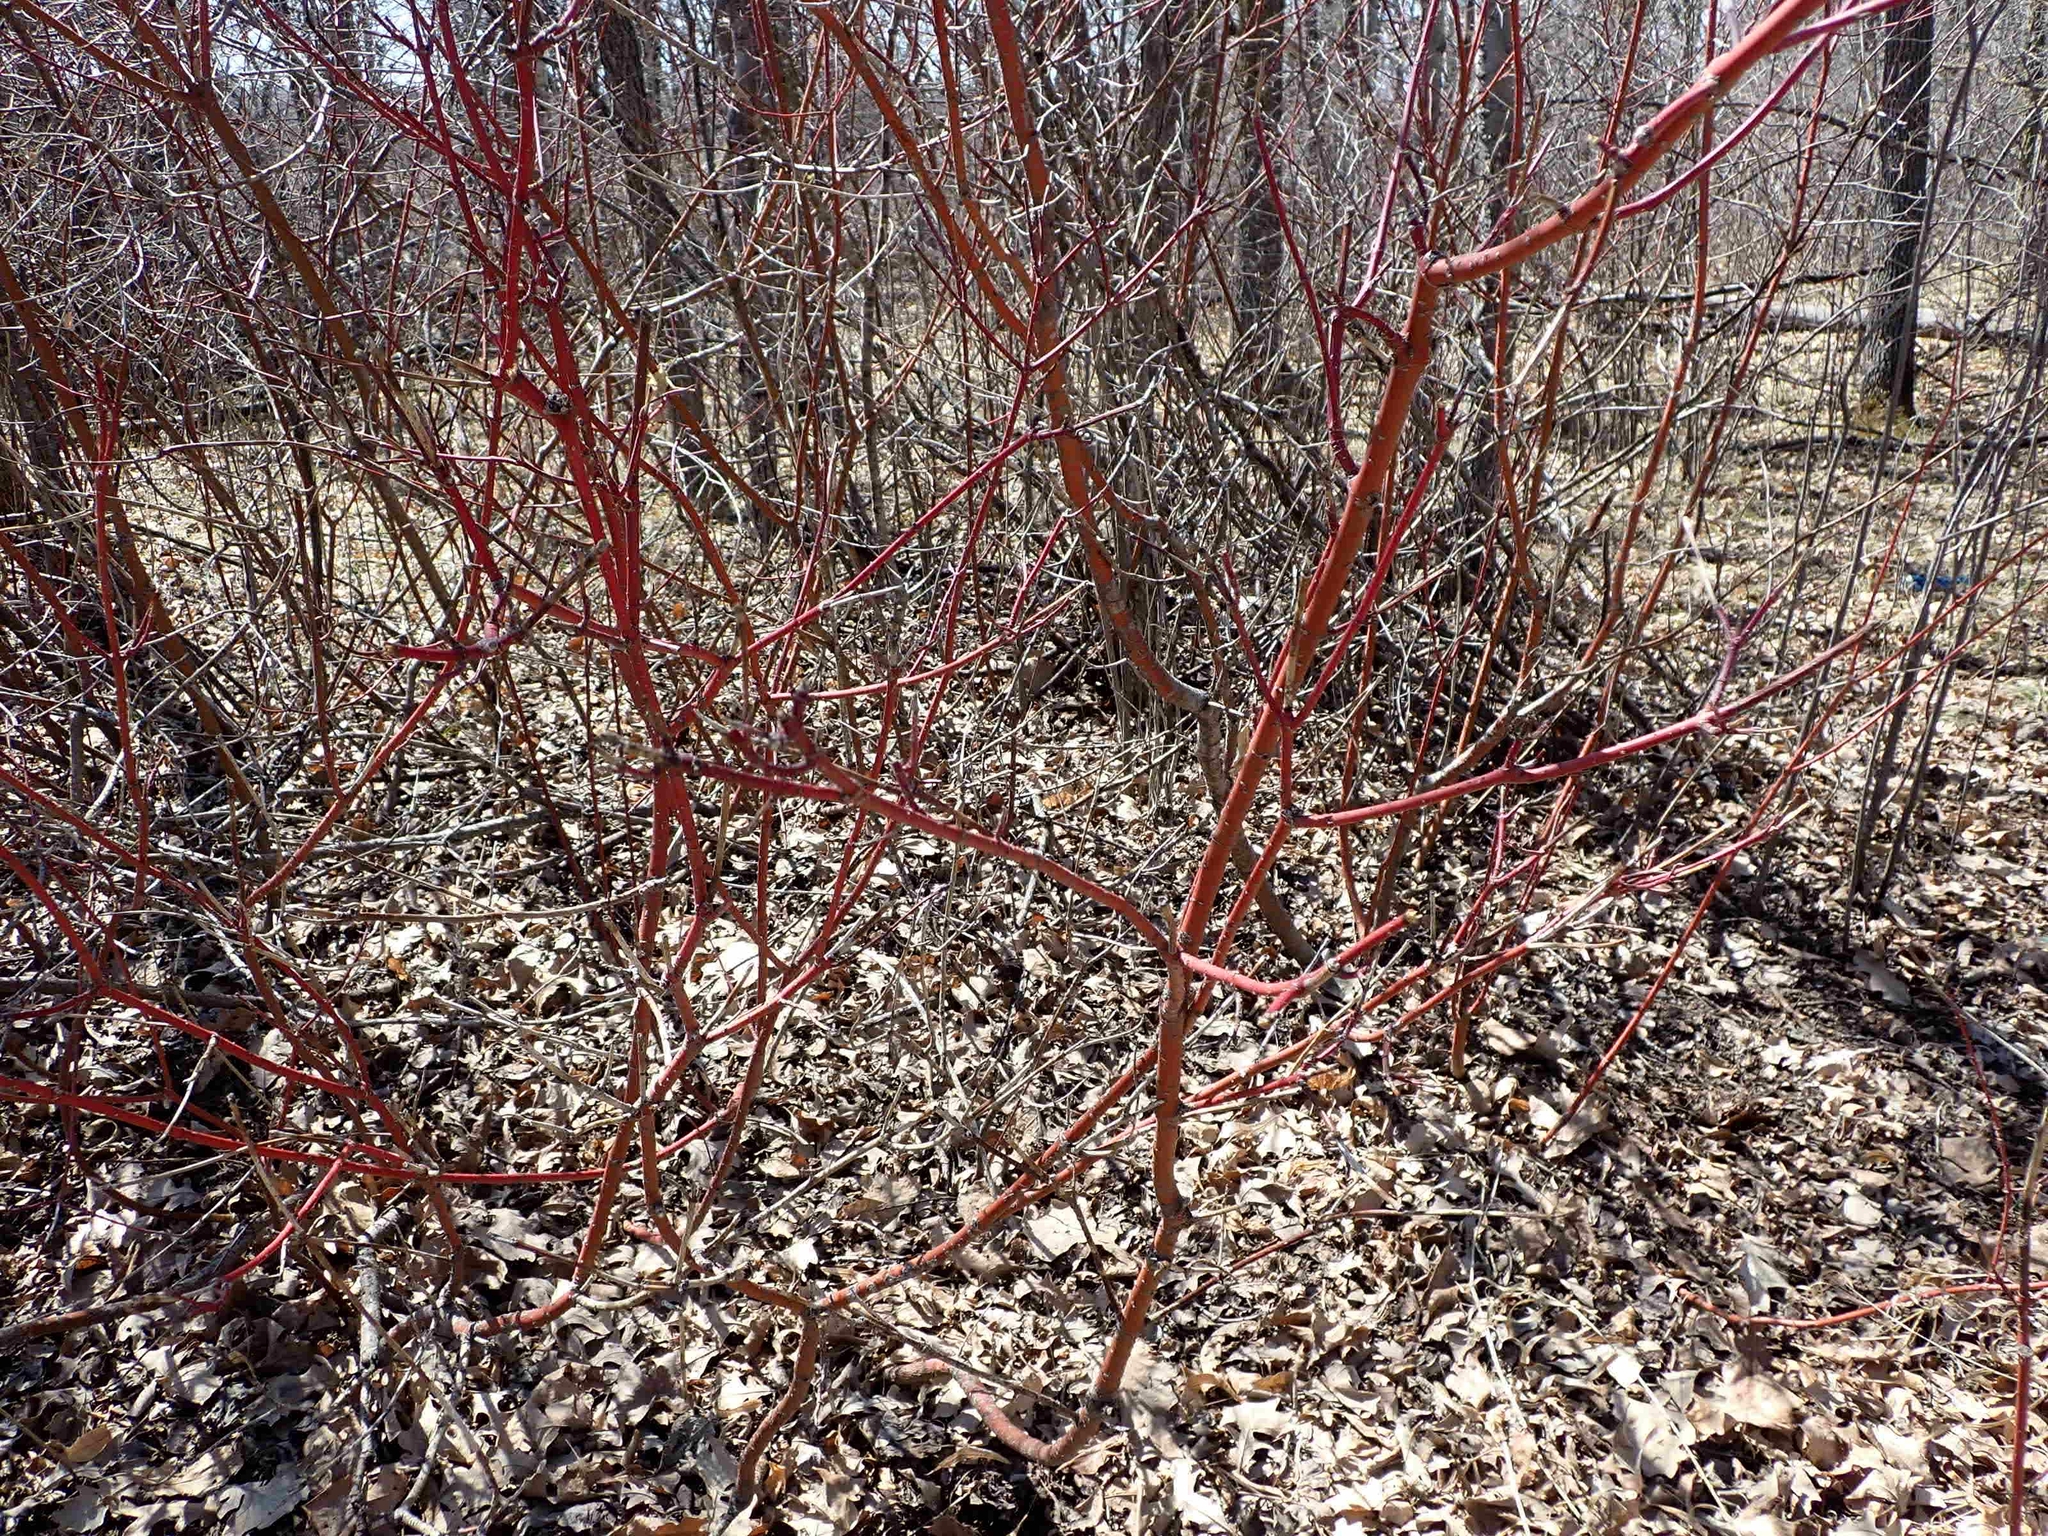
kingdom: Plantae
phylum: Tracheophyta
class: Magnoliopsida
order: Cornales
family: Cornaceae
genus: Cornus
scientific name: Cornus sericea
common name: Red-osier dogwood
